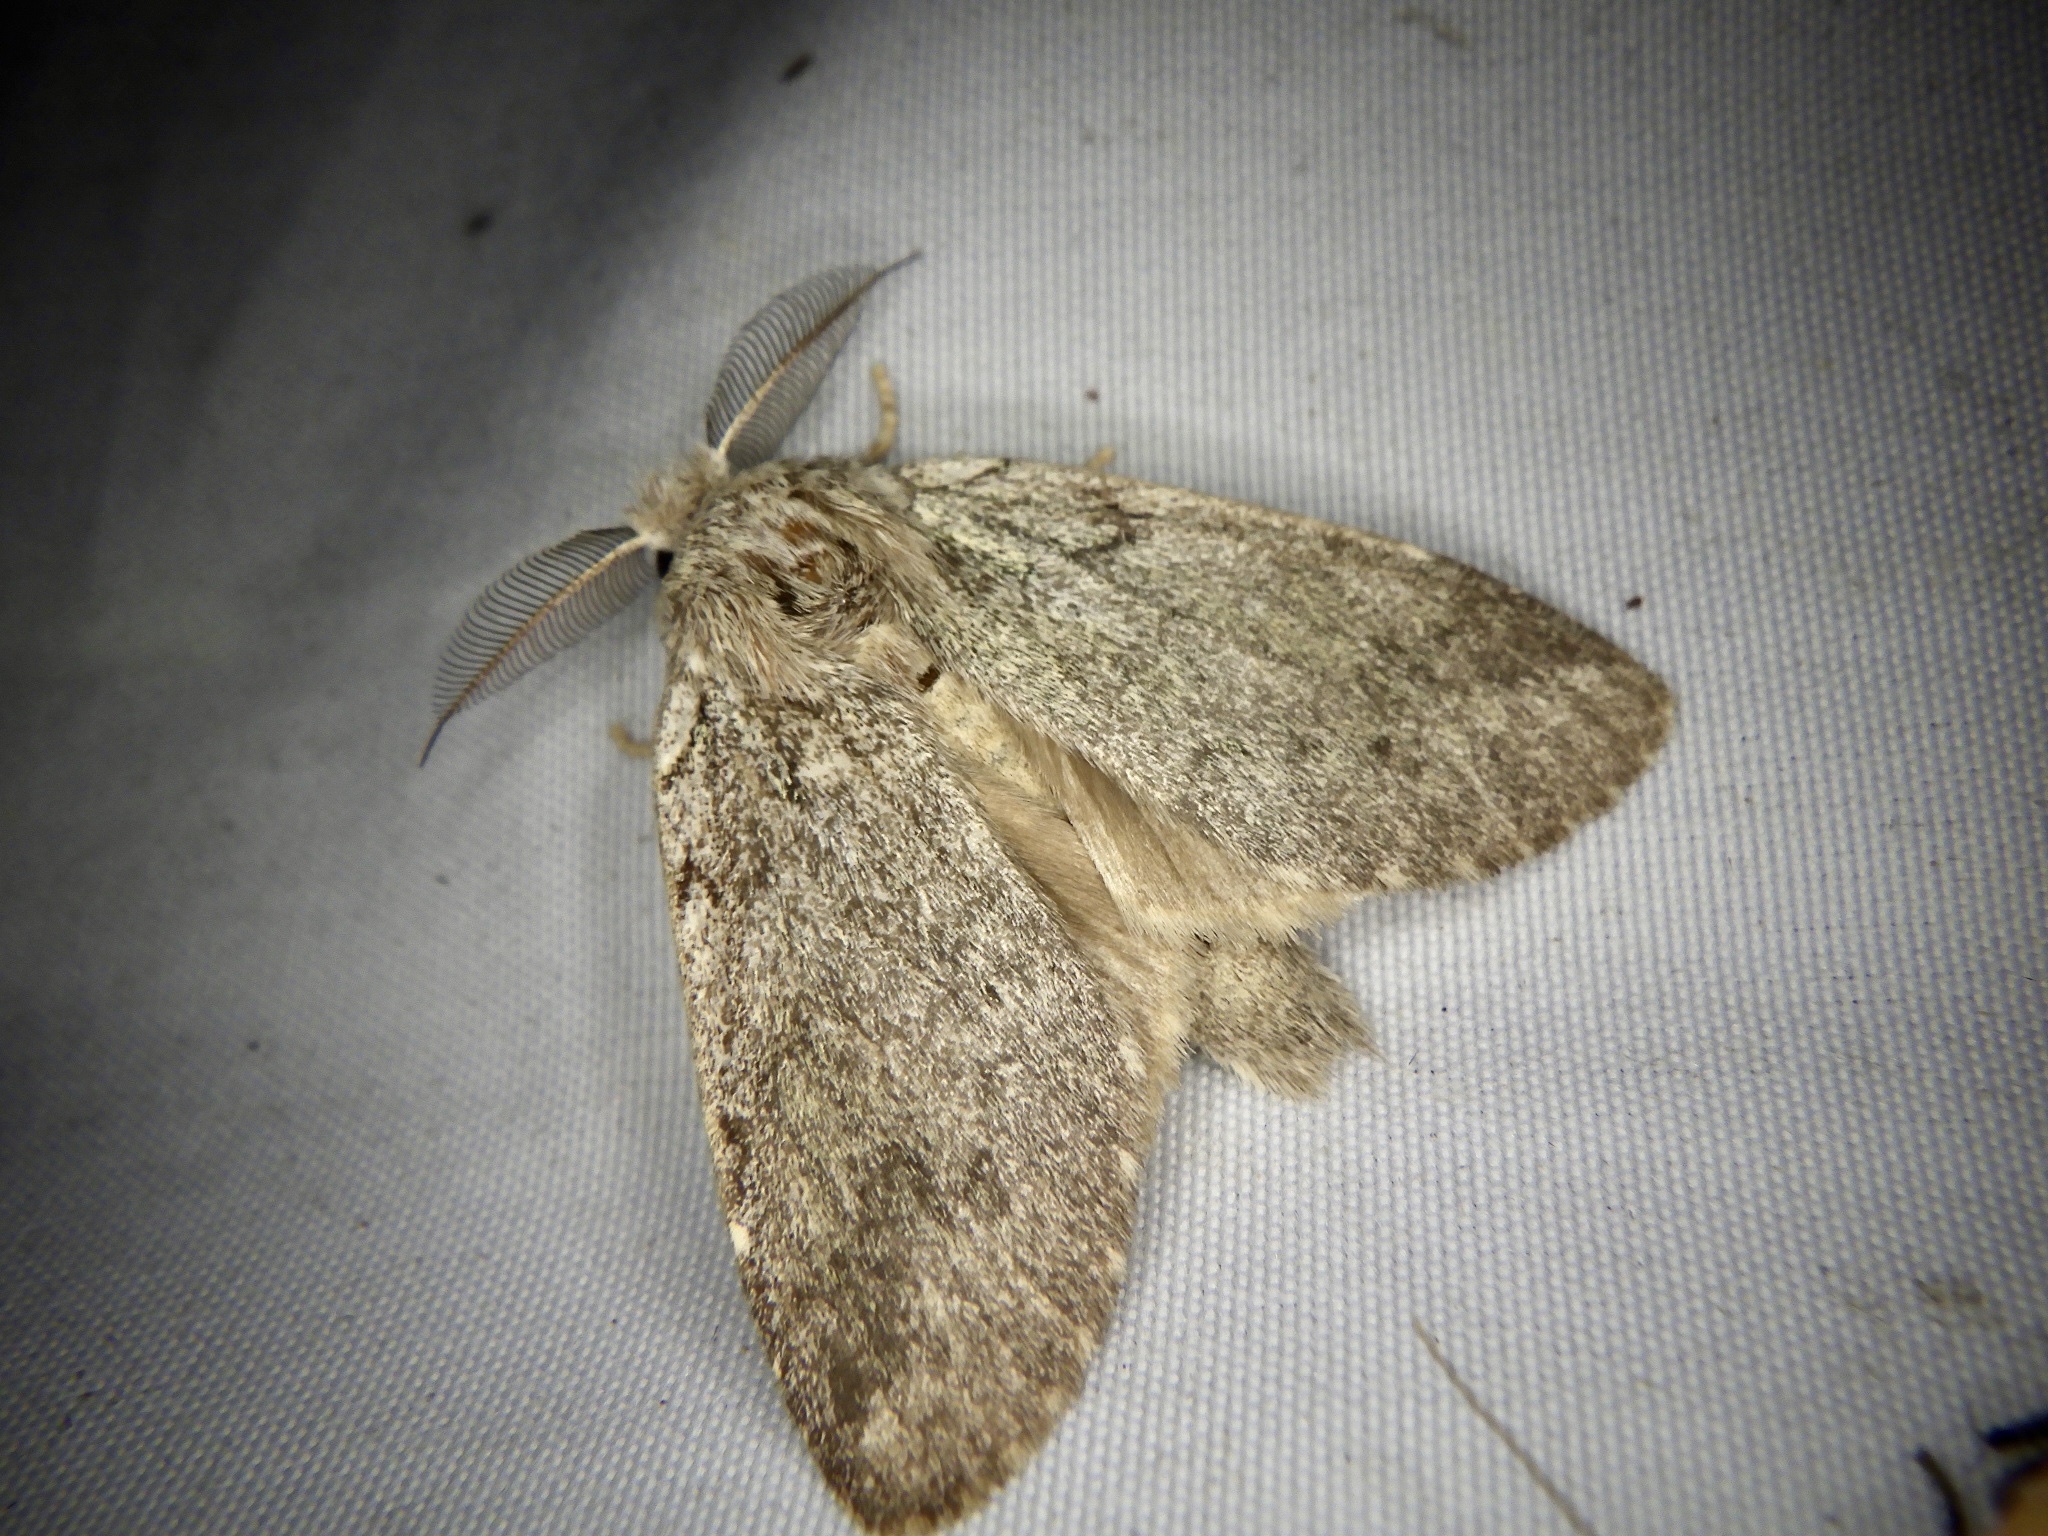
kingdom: Animalia
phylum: Arthropoda
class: Insecta
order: Lepidoptera
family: Notodontidae
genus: Syntypistis
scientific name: Syntypistis
